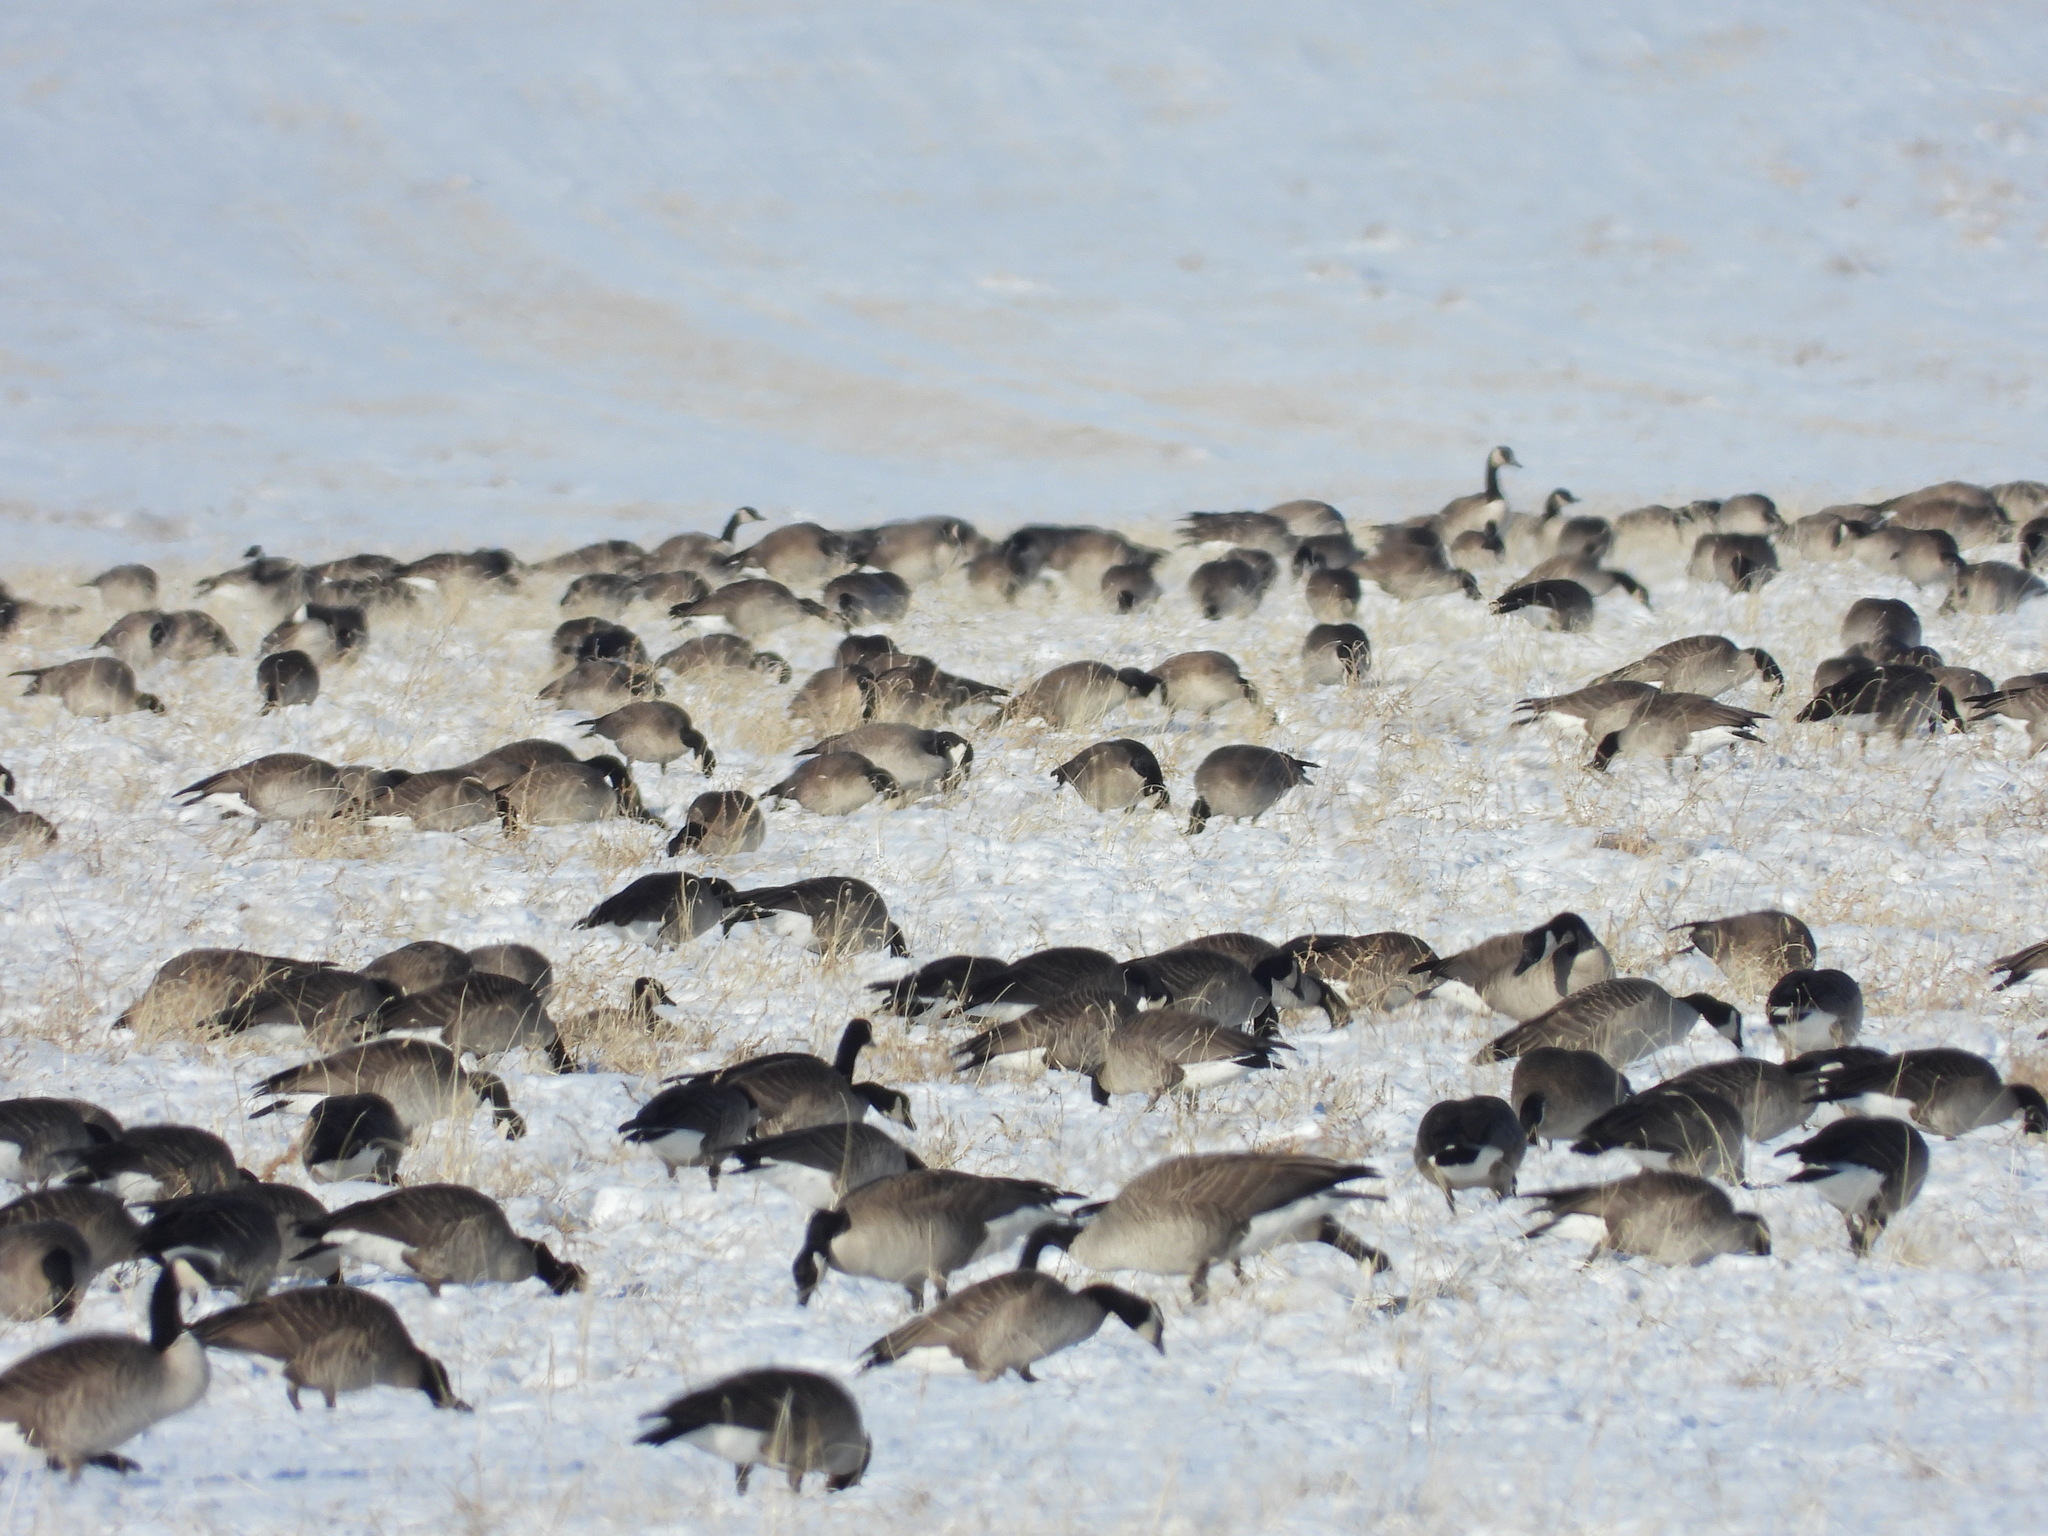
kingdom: Animalia
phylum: Chordata
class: Aves
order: Anseriformes
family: Anatidae
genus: Branta
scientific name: Branta canadensis
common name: Canada goose
